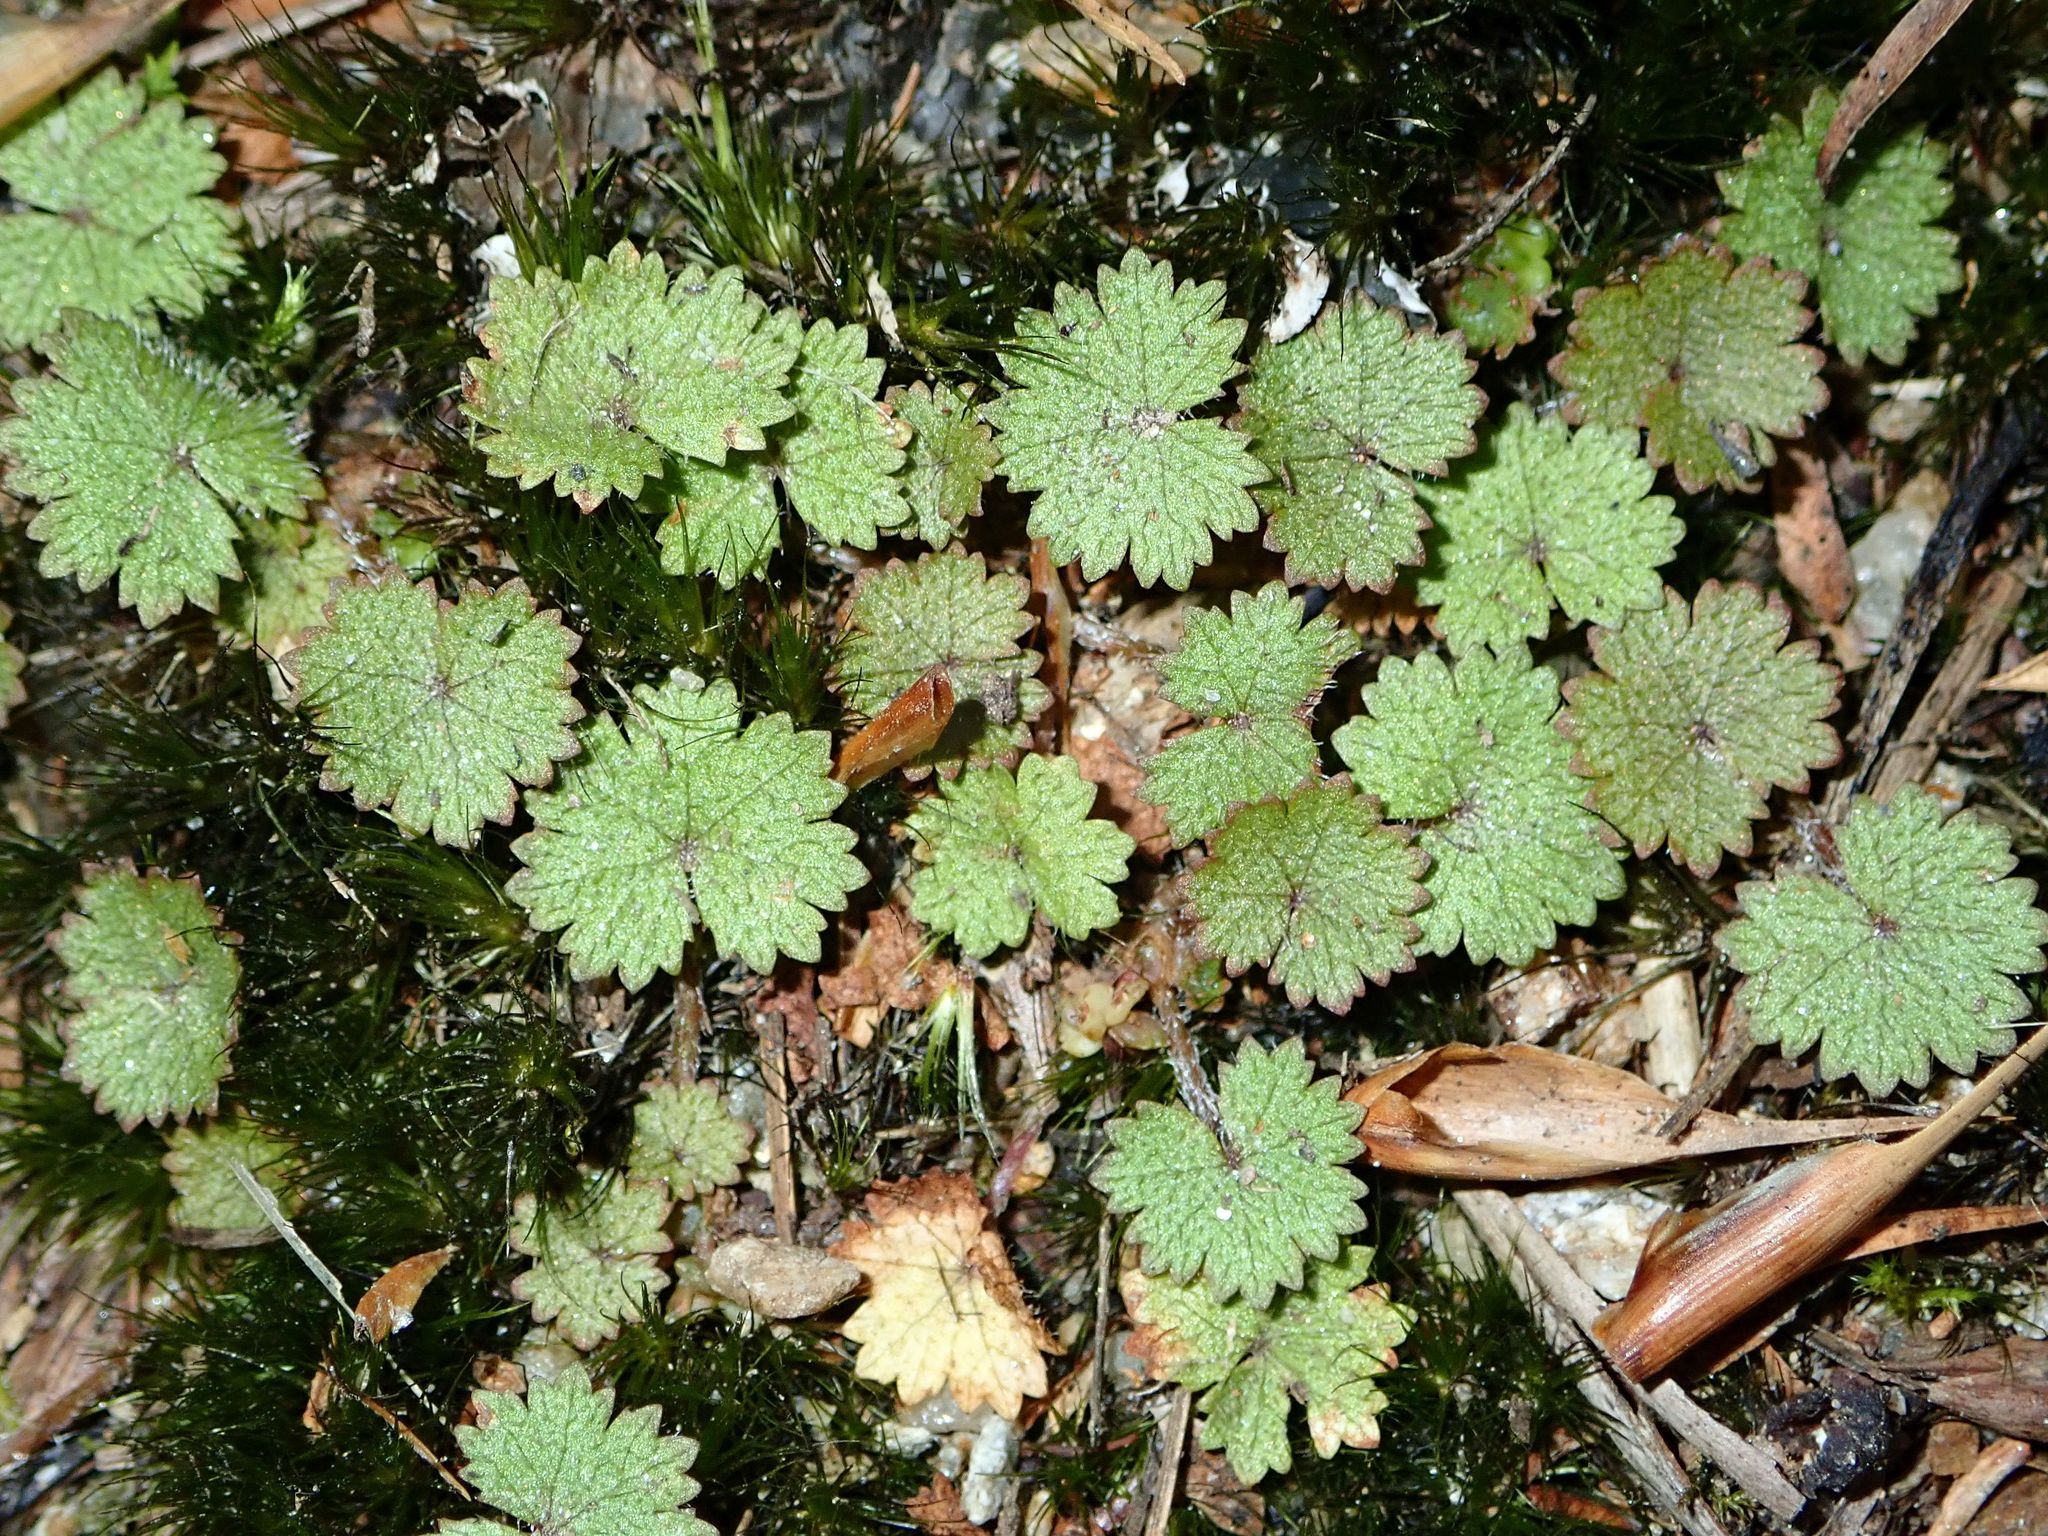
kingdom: Plantae
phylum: Tracheophyta
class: Magnoliopsida
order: Apiales
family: Araliaceae
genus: Hydrocotyle
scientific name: Hydrocotyle moschata
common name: Hairy pennywort
